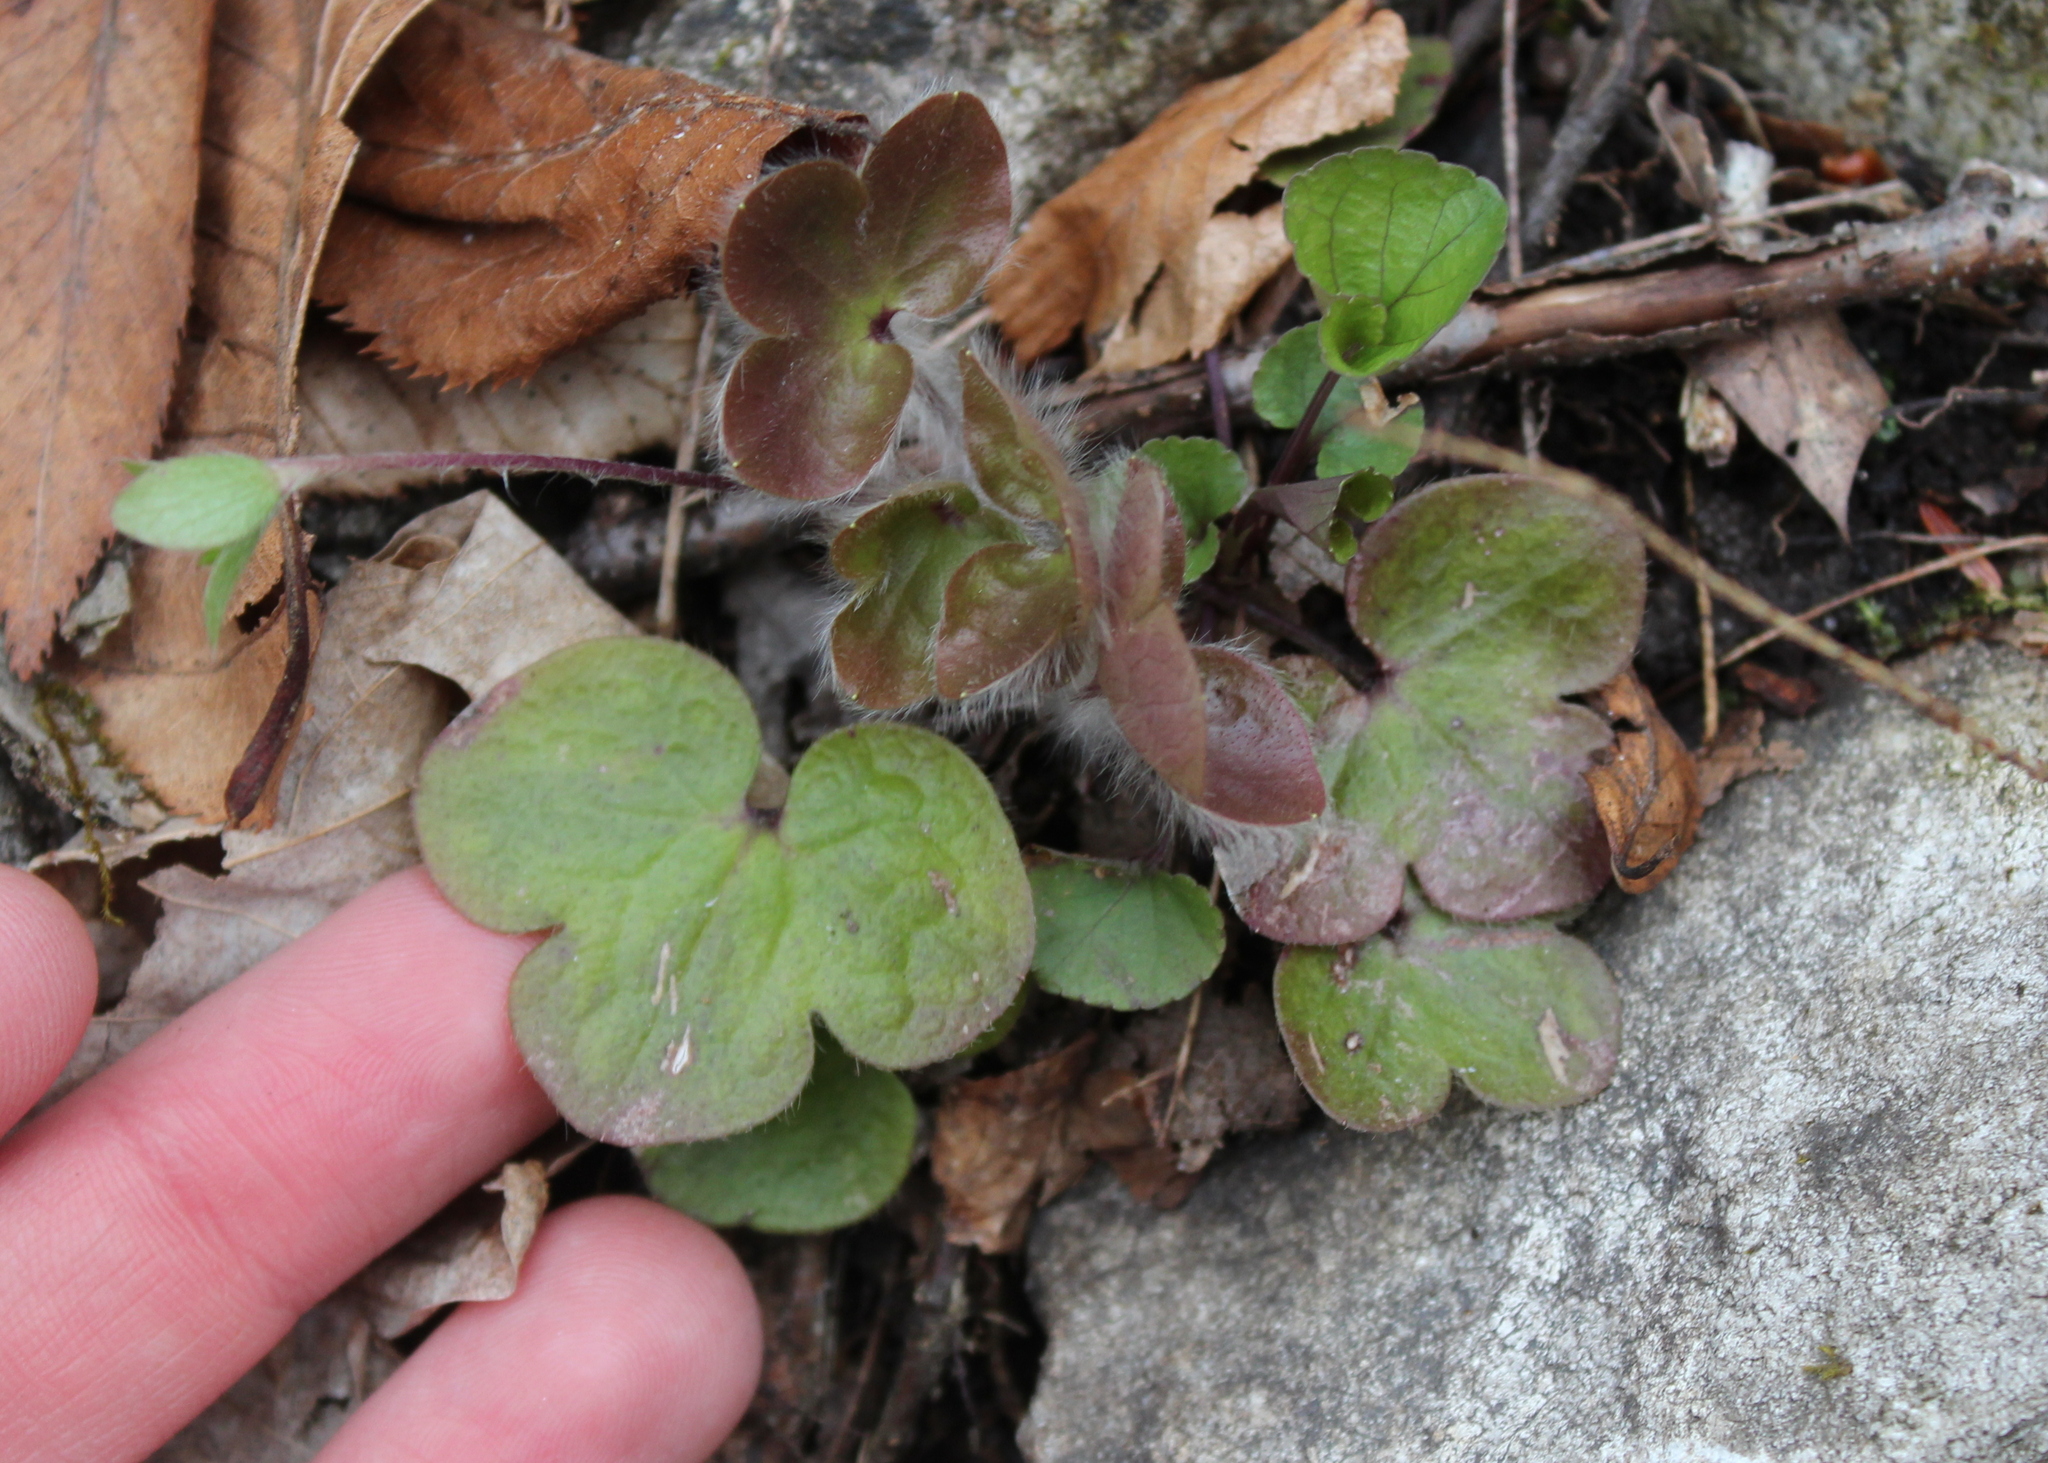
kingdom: Plantae
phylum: Tracheophyta
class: Magnoliopsida
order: Ranunculales
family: Ranunculaceae
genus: Hepatica
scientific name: Hepatica americana
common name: American hepatica
